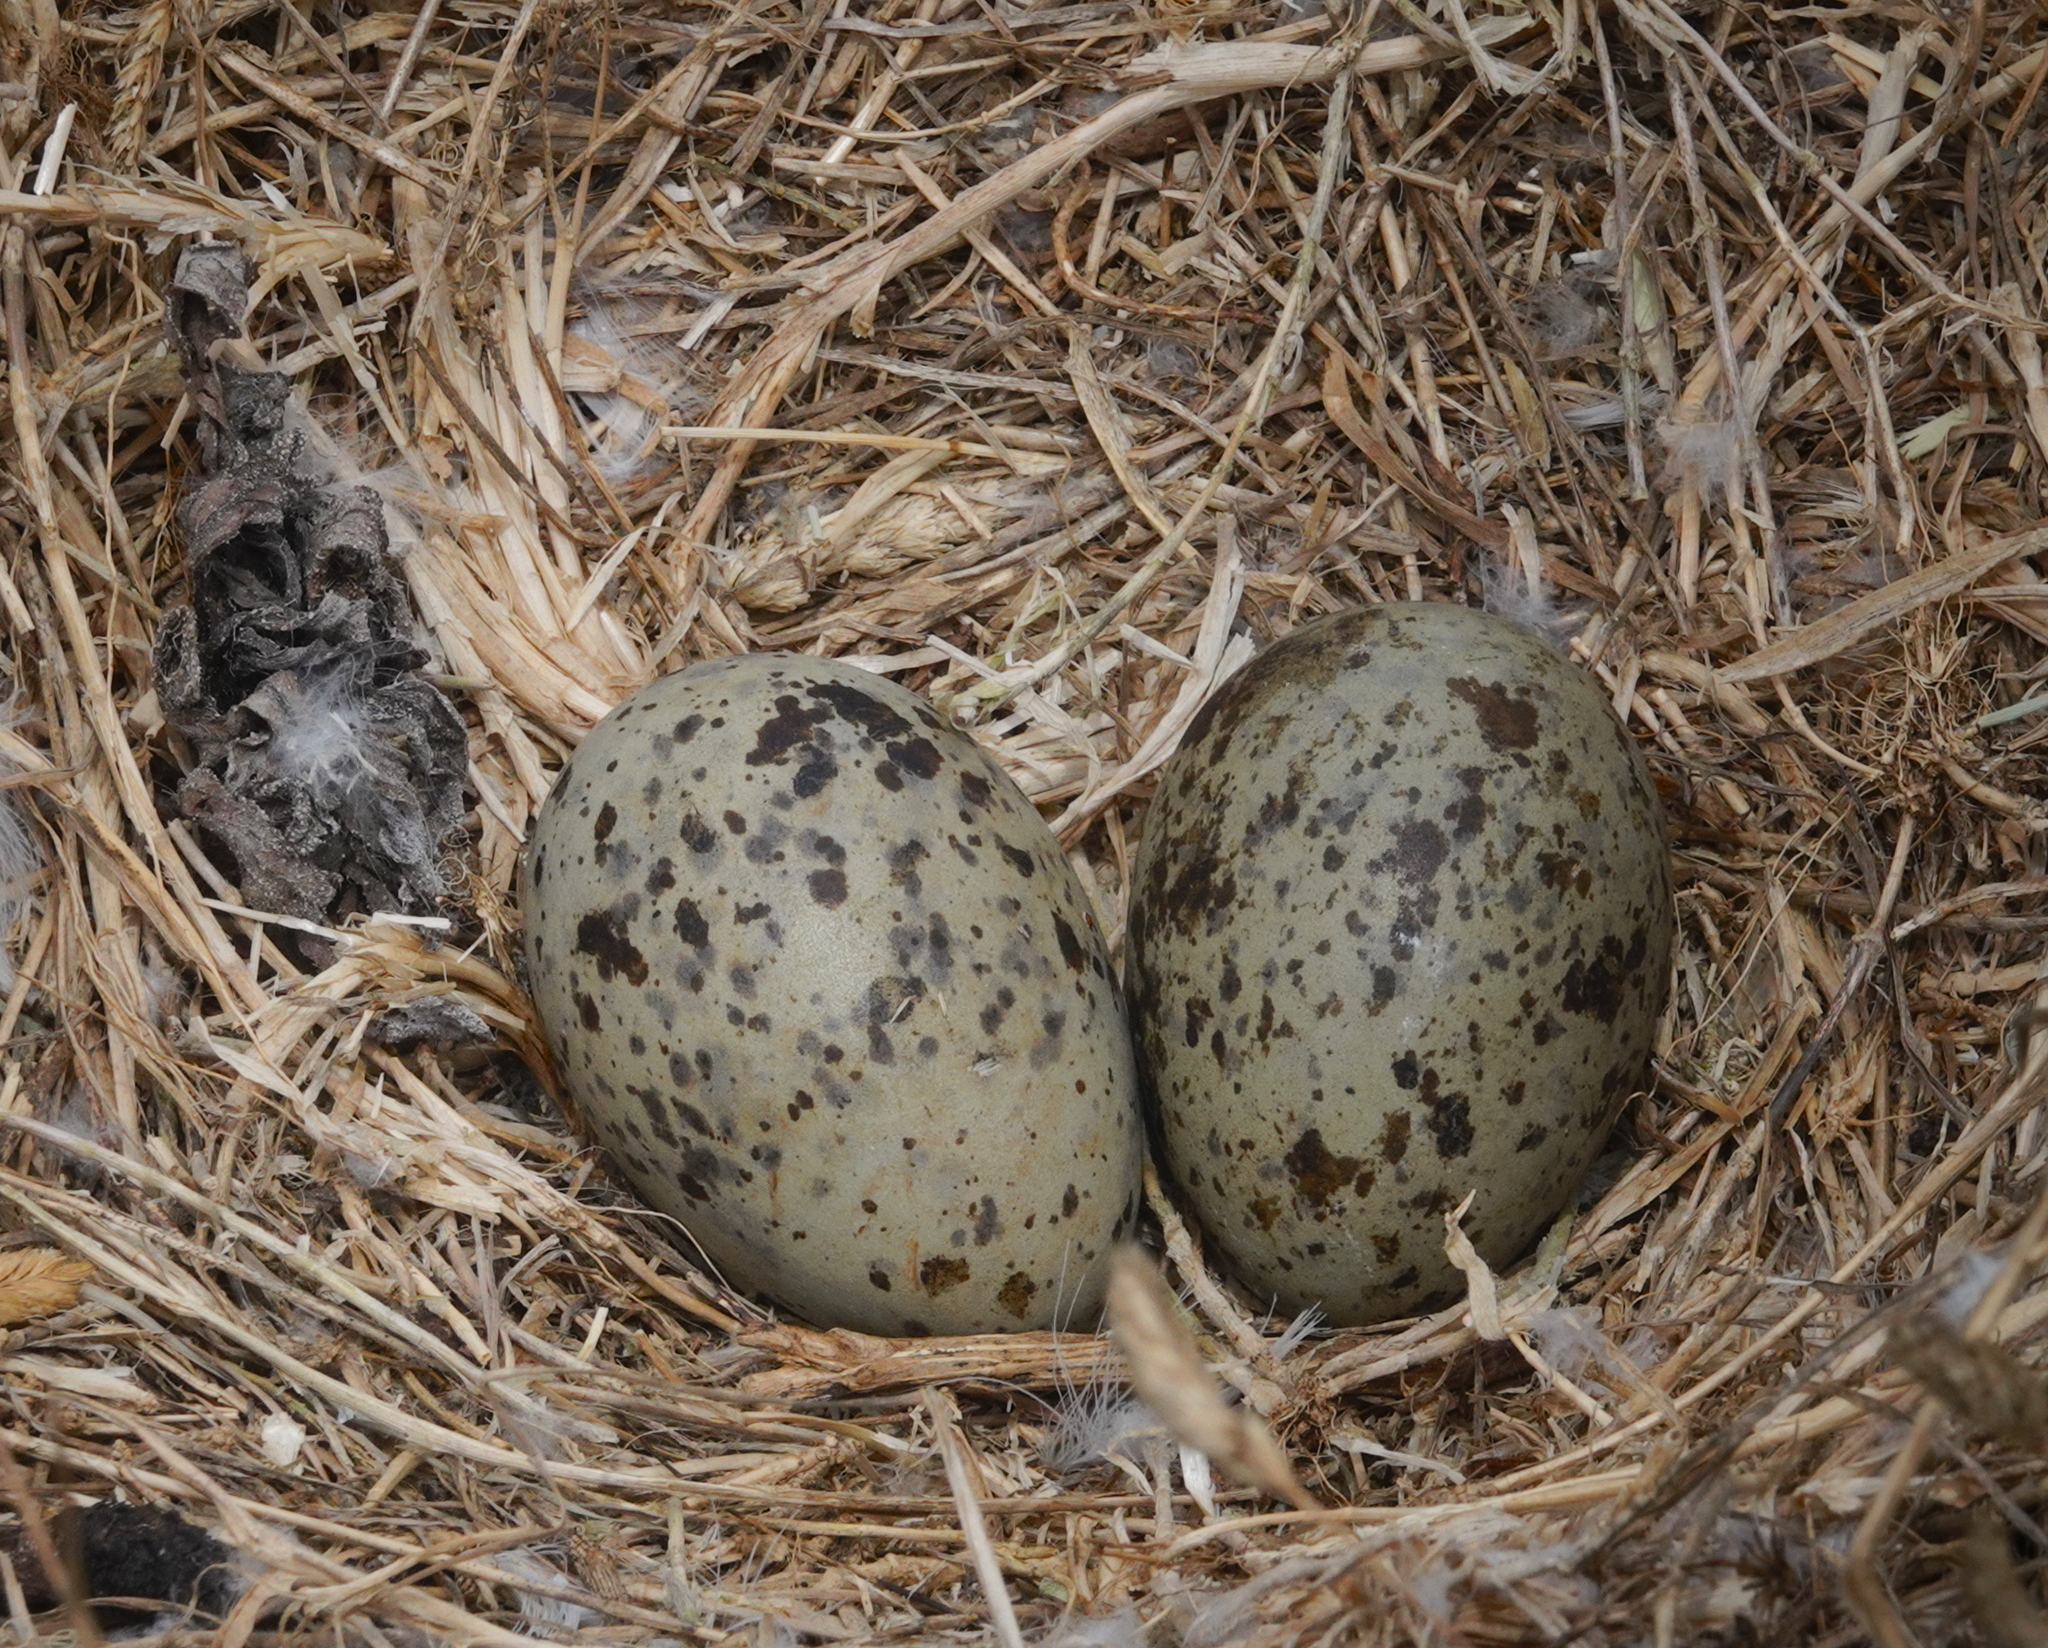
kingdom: Animalia
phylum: Chordata
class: Aves
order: Charadriiformes
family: Laridae
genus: Larus
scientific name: Larus michahellis
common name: Yellow-legged gull
